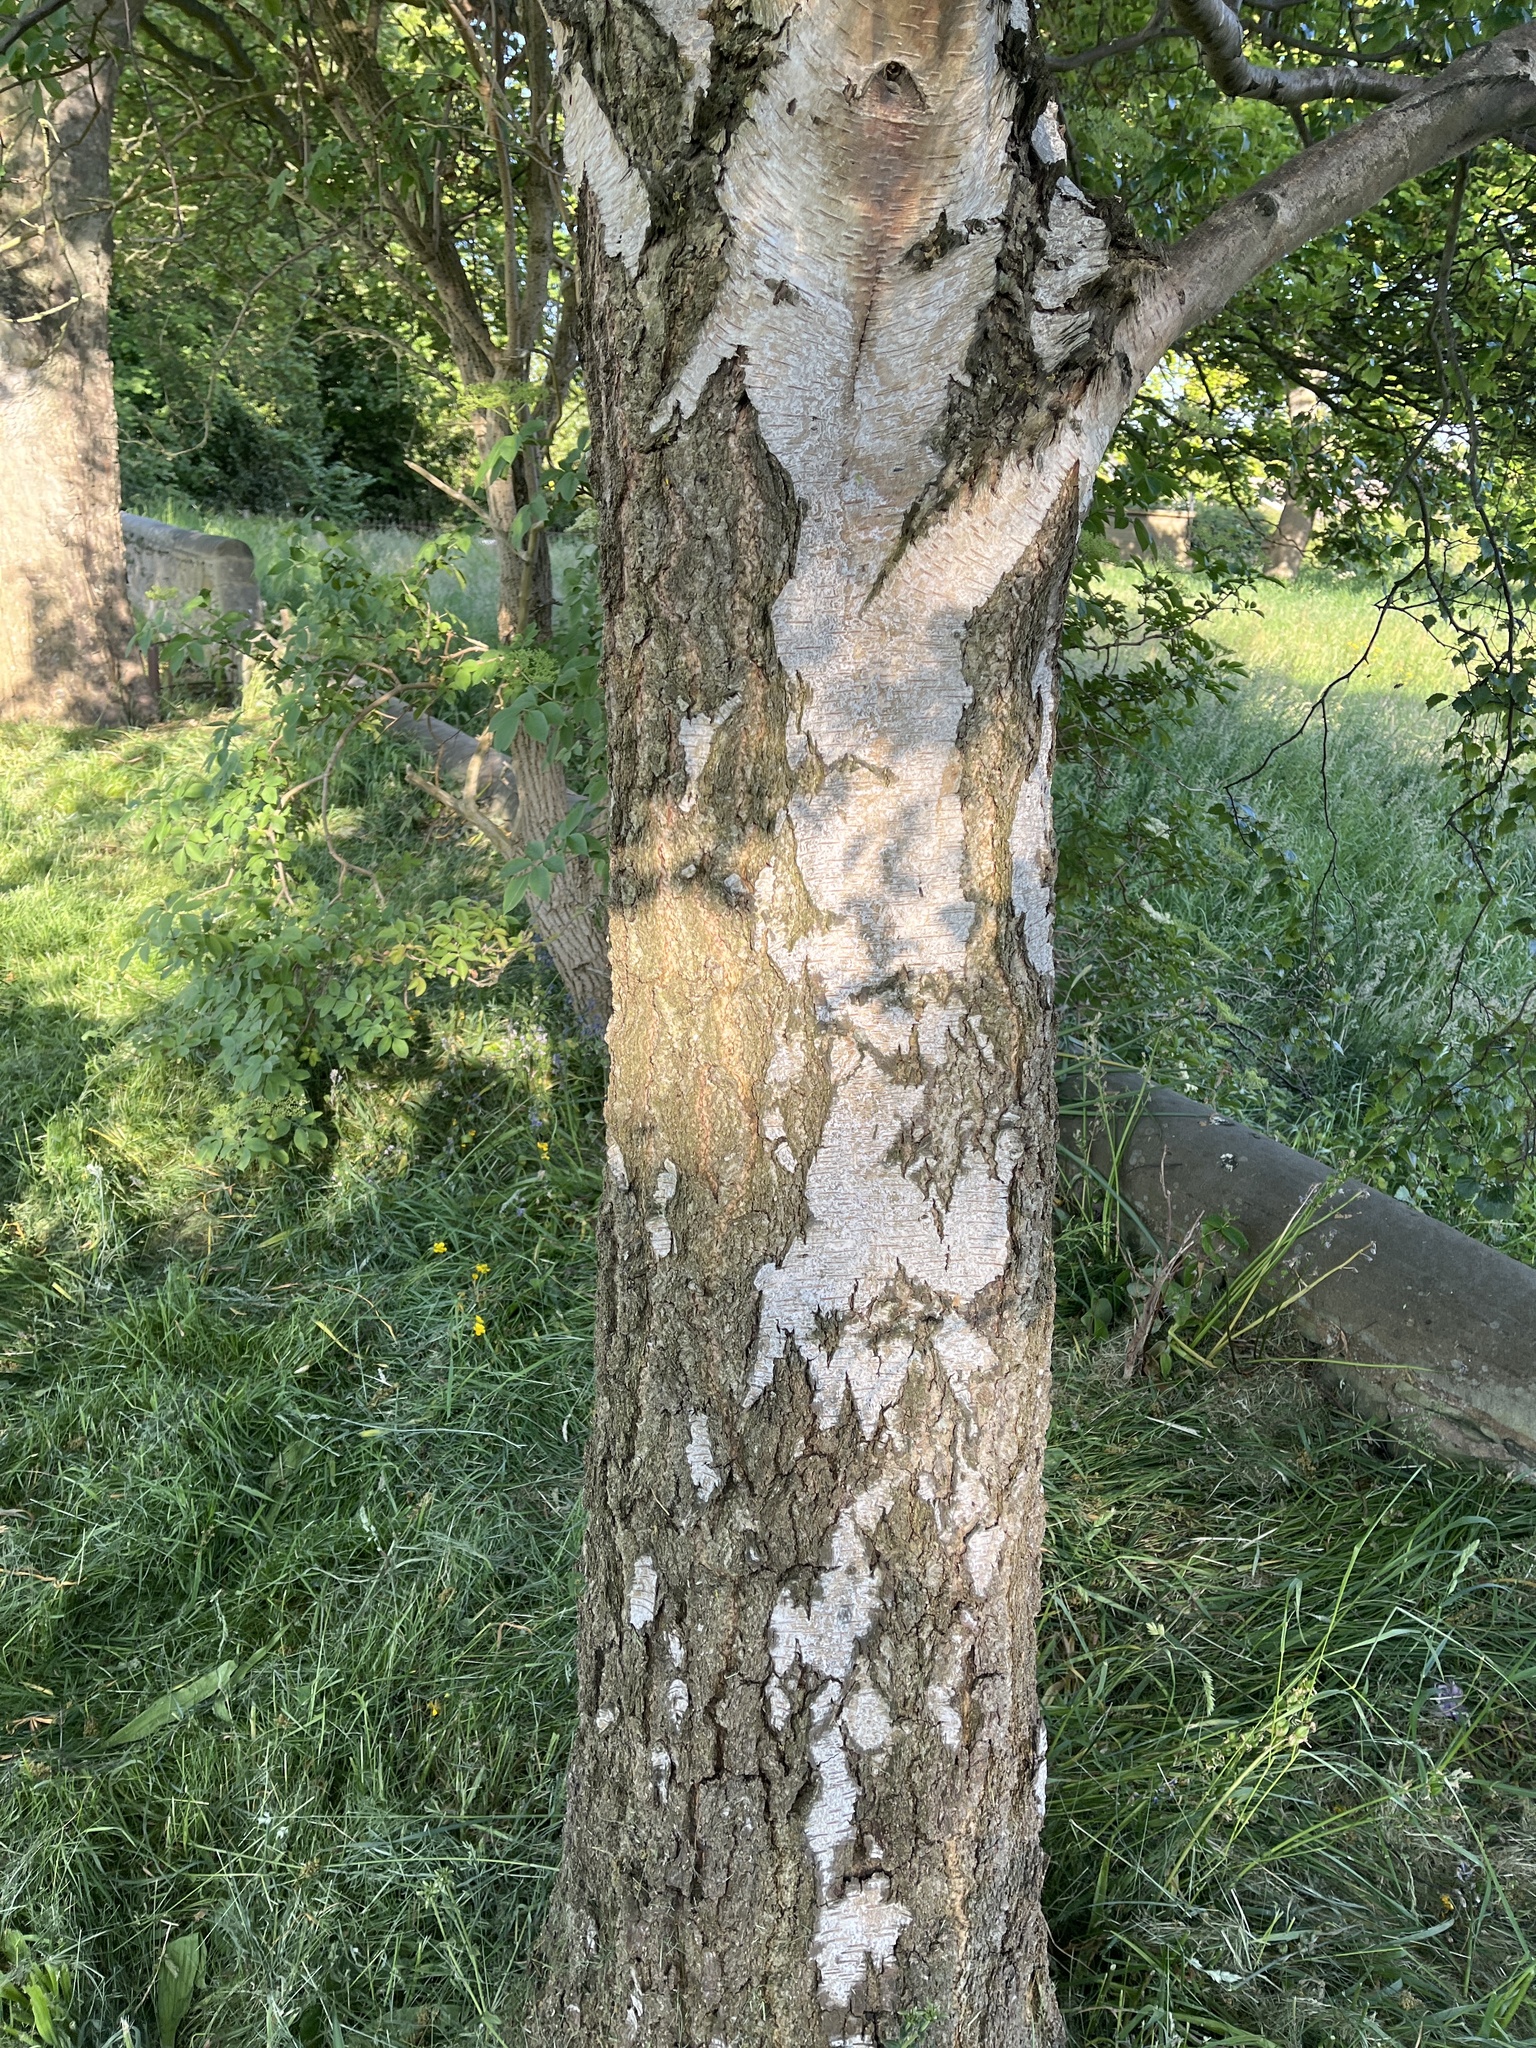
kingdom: Plantae
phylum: Tracheophyta
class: Magnoliopsida
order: Fagales
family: Betulaceae
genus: Betula
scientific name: Betula pendula
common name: Silver birch
